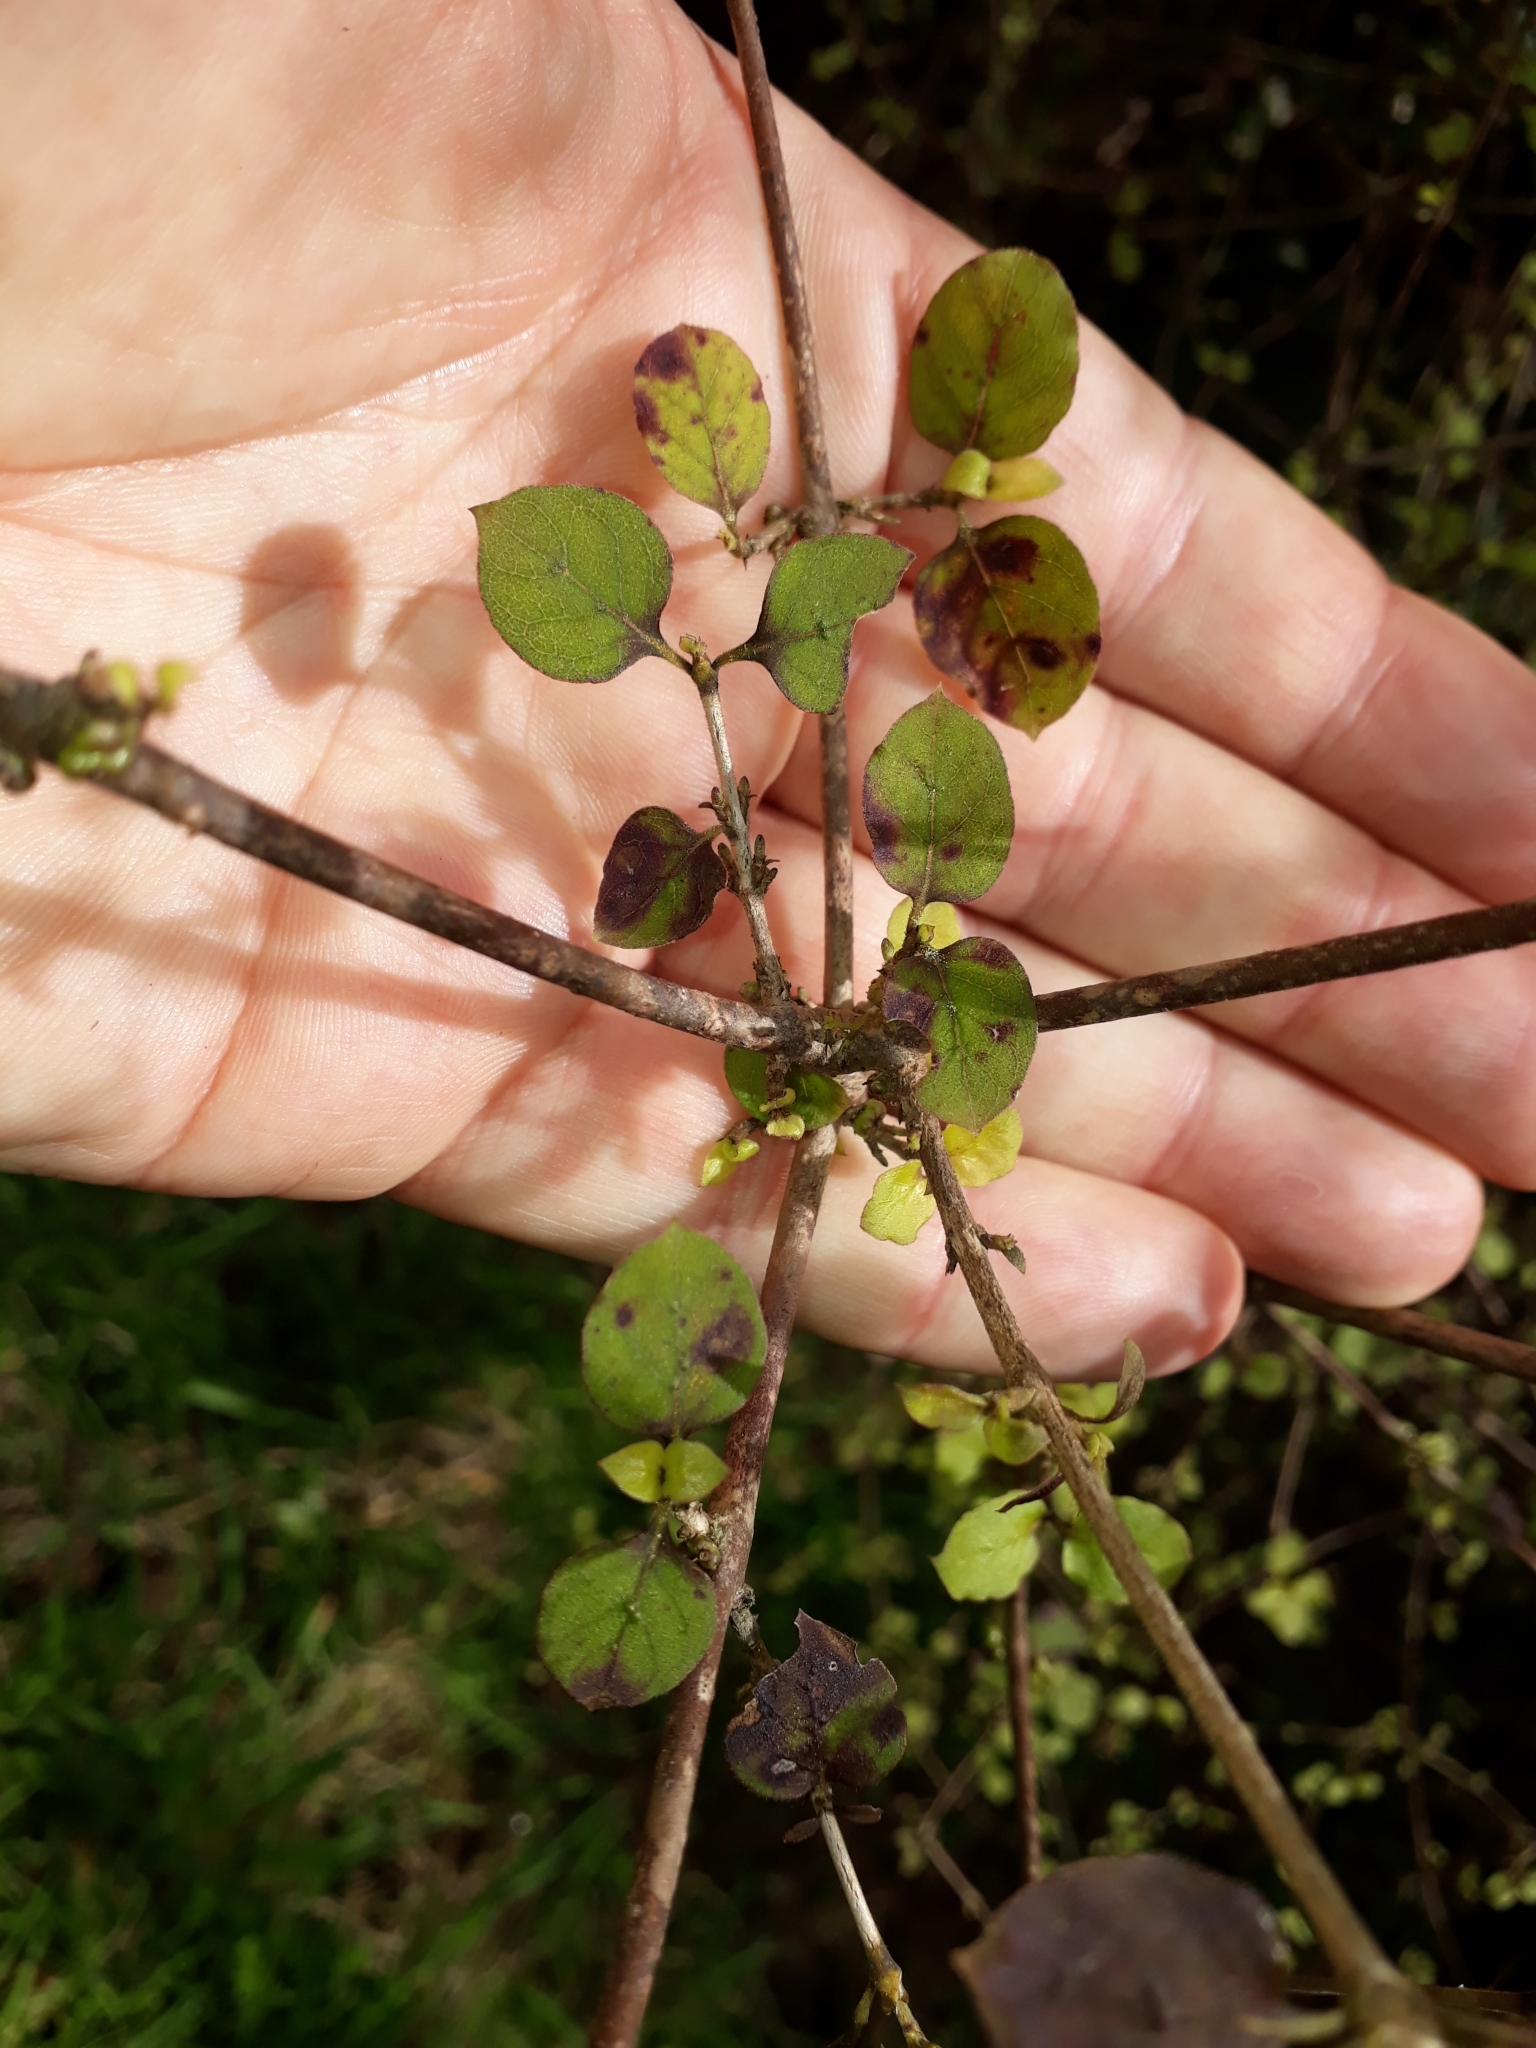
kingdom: Plantae
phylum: Tracheophyta
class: Magnoliopsida
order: Gentianales
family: Rubiaceae
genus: Coprosma
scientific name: Coprosma rotundifolia
